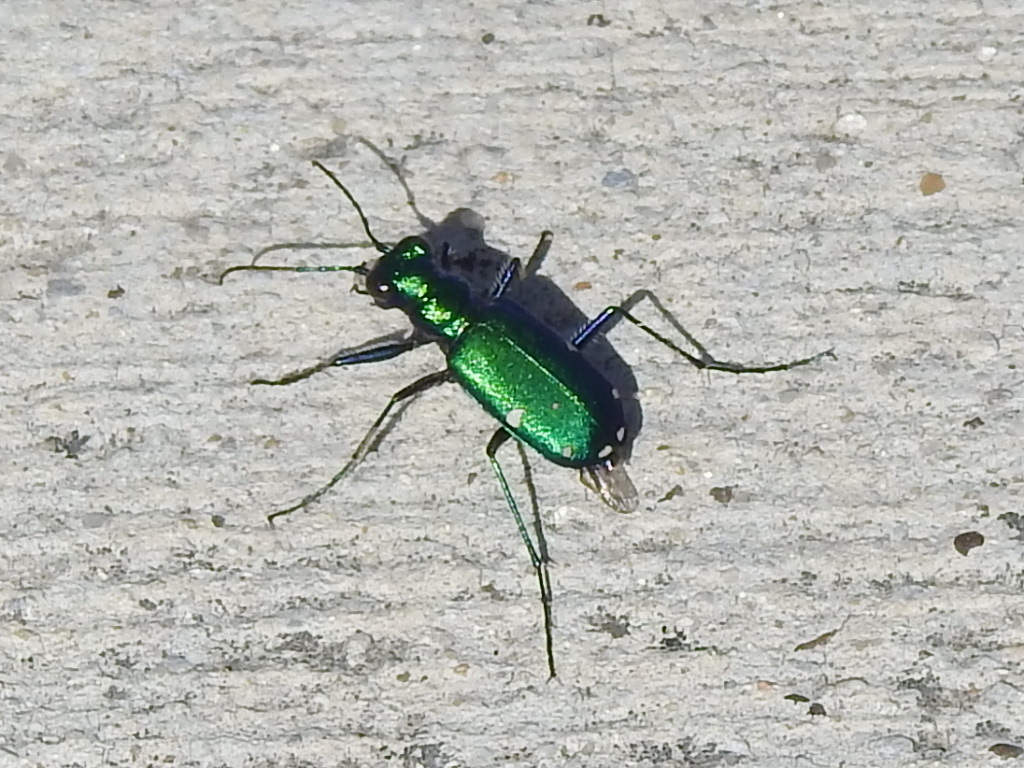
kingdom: Animalia
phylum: Arthropoda
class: Insecta
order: Coleoptera
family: Carabidae
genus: Cicindela
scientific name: Cicindela sexguttata
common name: Six-spotted tiger beetle
